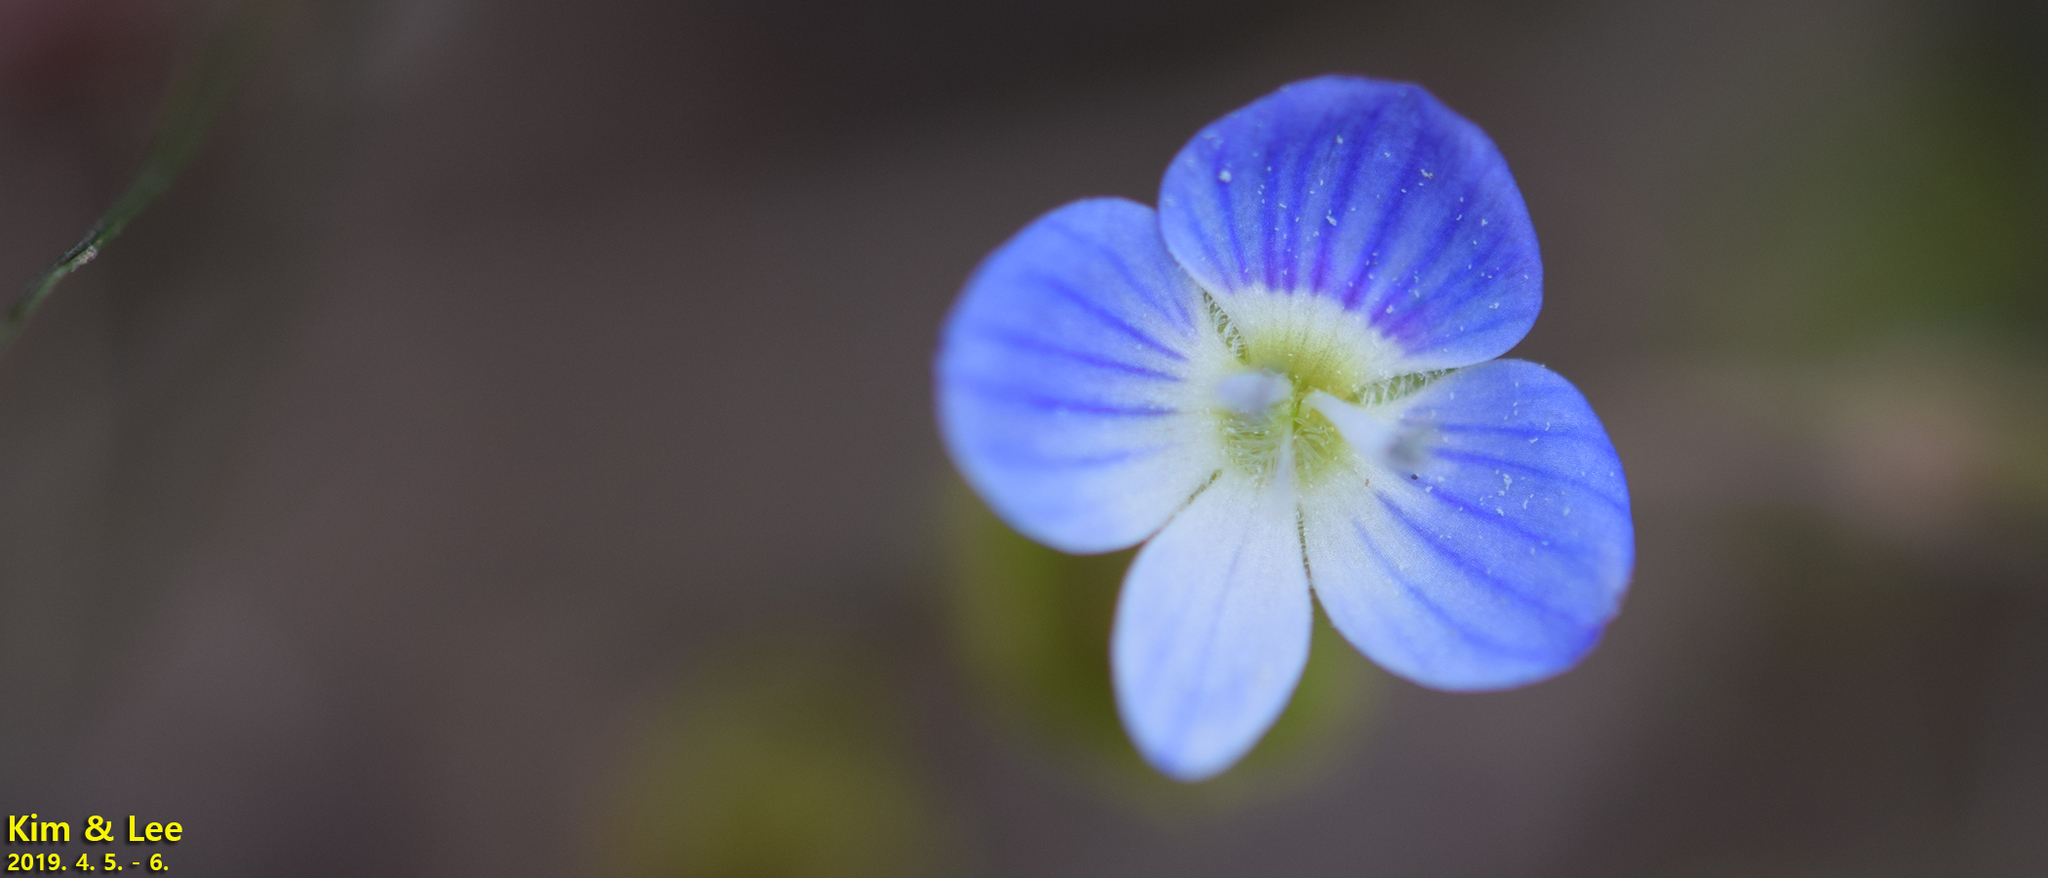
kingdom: Plantae
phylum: Tracheophyta
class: Magnoliopsida
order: Lamiales
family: Plantaginaceae
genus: Veronica
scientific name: Veronica persica
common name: Common field-speedwell
